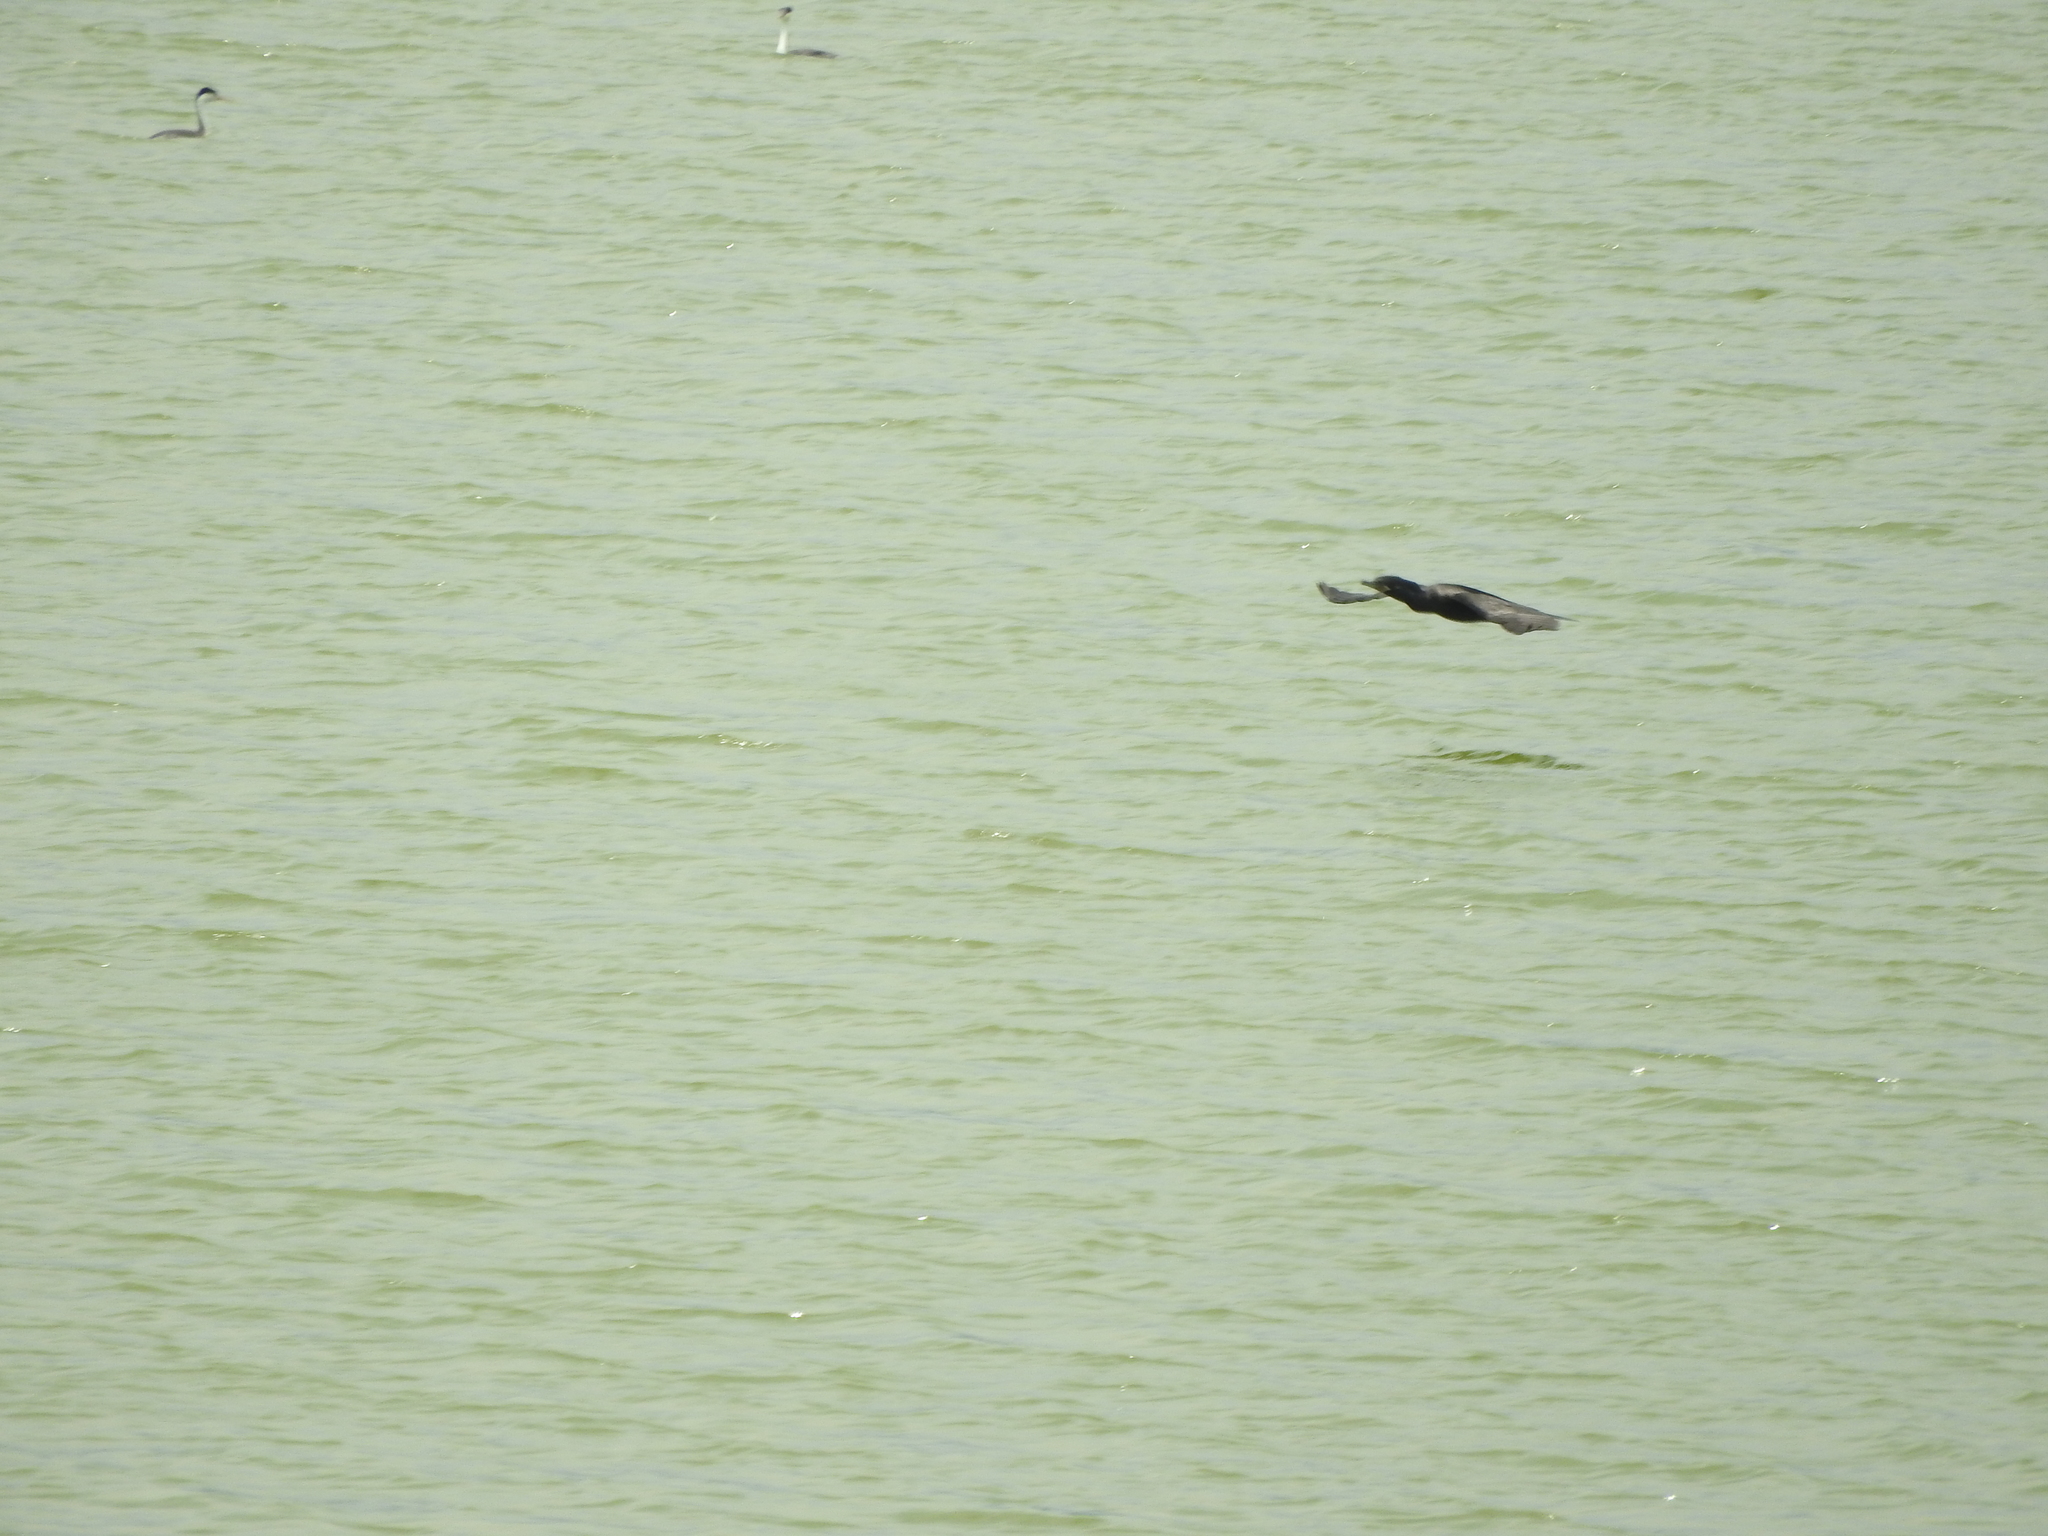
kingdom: Animalia
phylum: Chordata
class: Aves
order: Suliformes
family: Phalacrocoracidae
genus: Phalacrocorax
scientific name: Phalacrocorax brasilianus
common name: Neotropic cormorant
